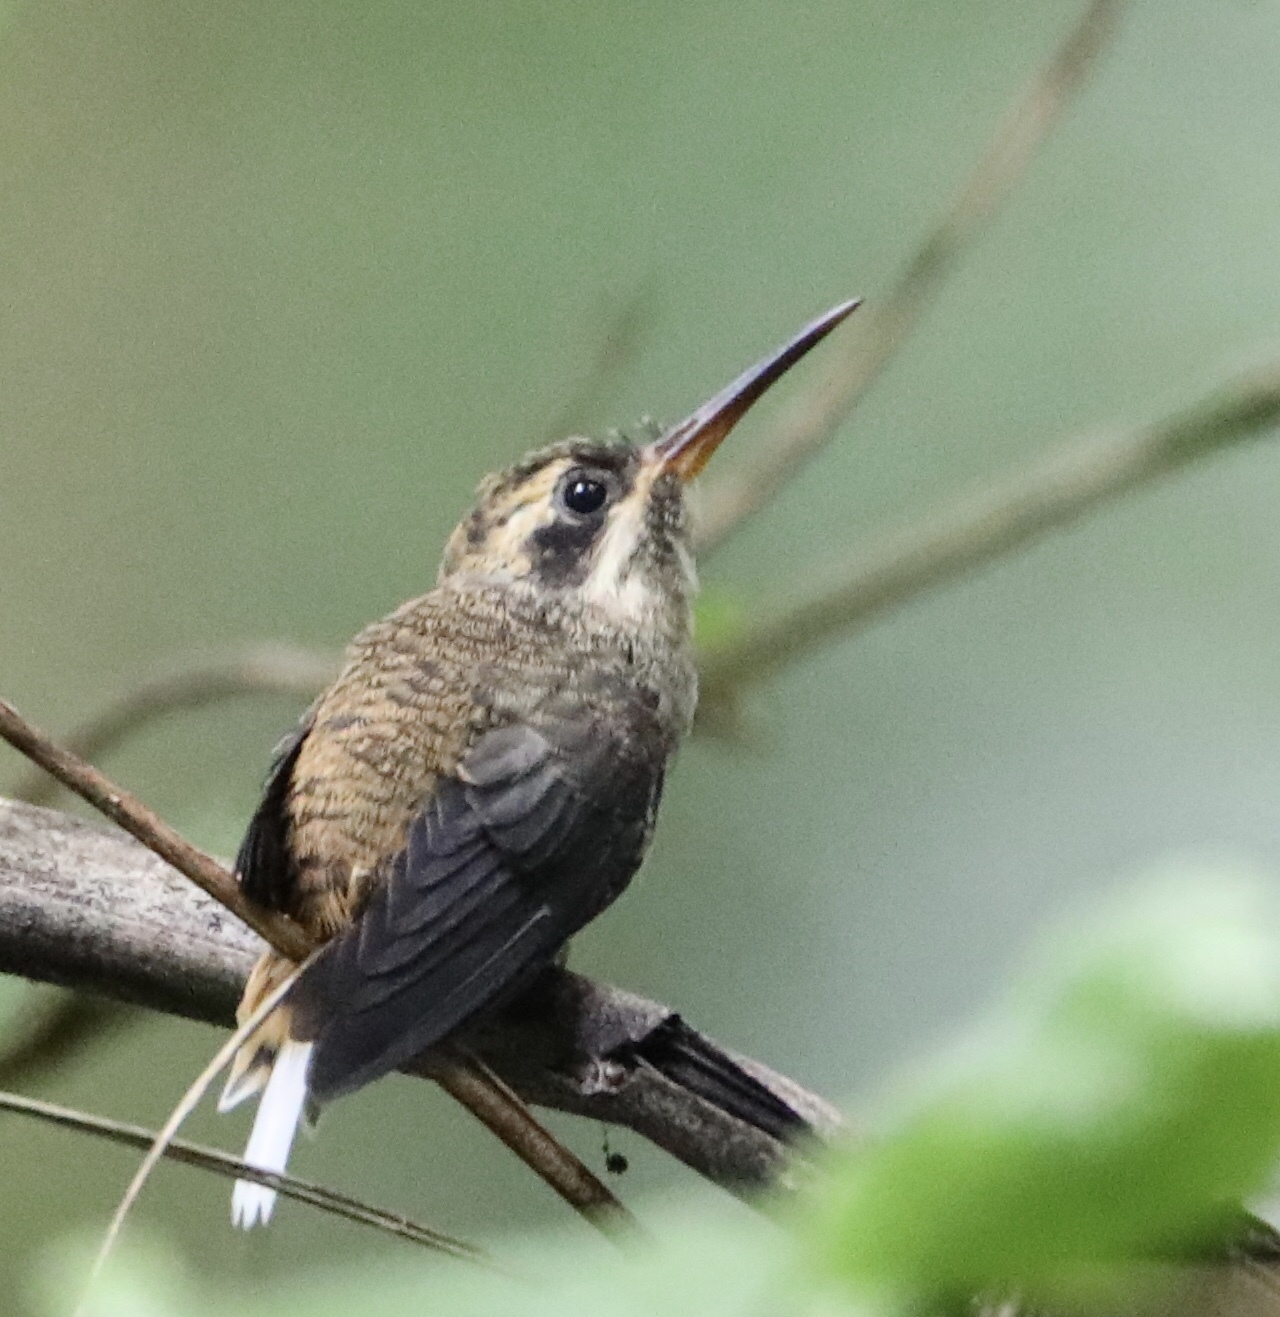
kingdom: Animalia
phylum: Chordata
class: Aves
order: Apodiformes
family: Trochilidae
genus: Phaethornis
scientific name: Phaethornis striigularis
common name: Stripe-throated hermit
